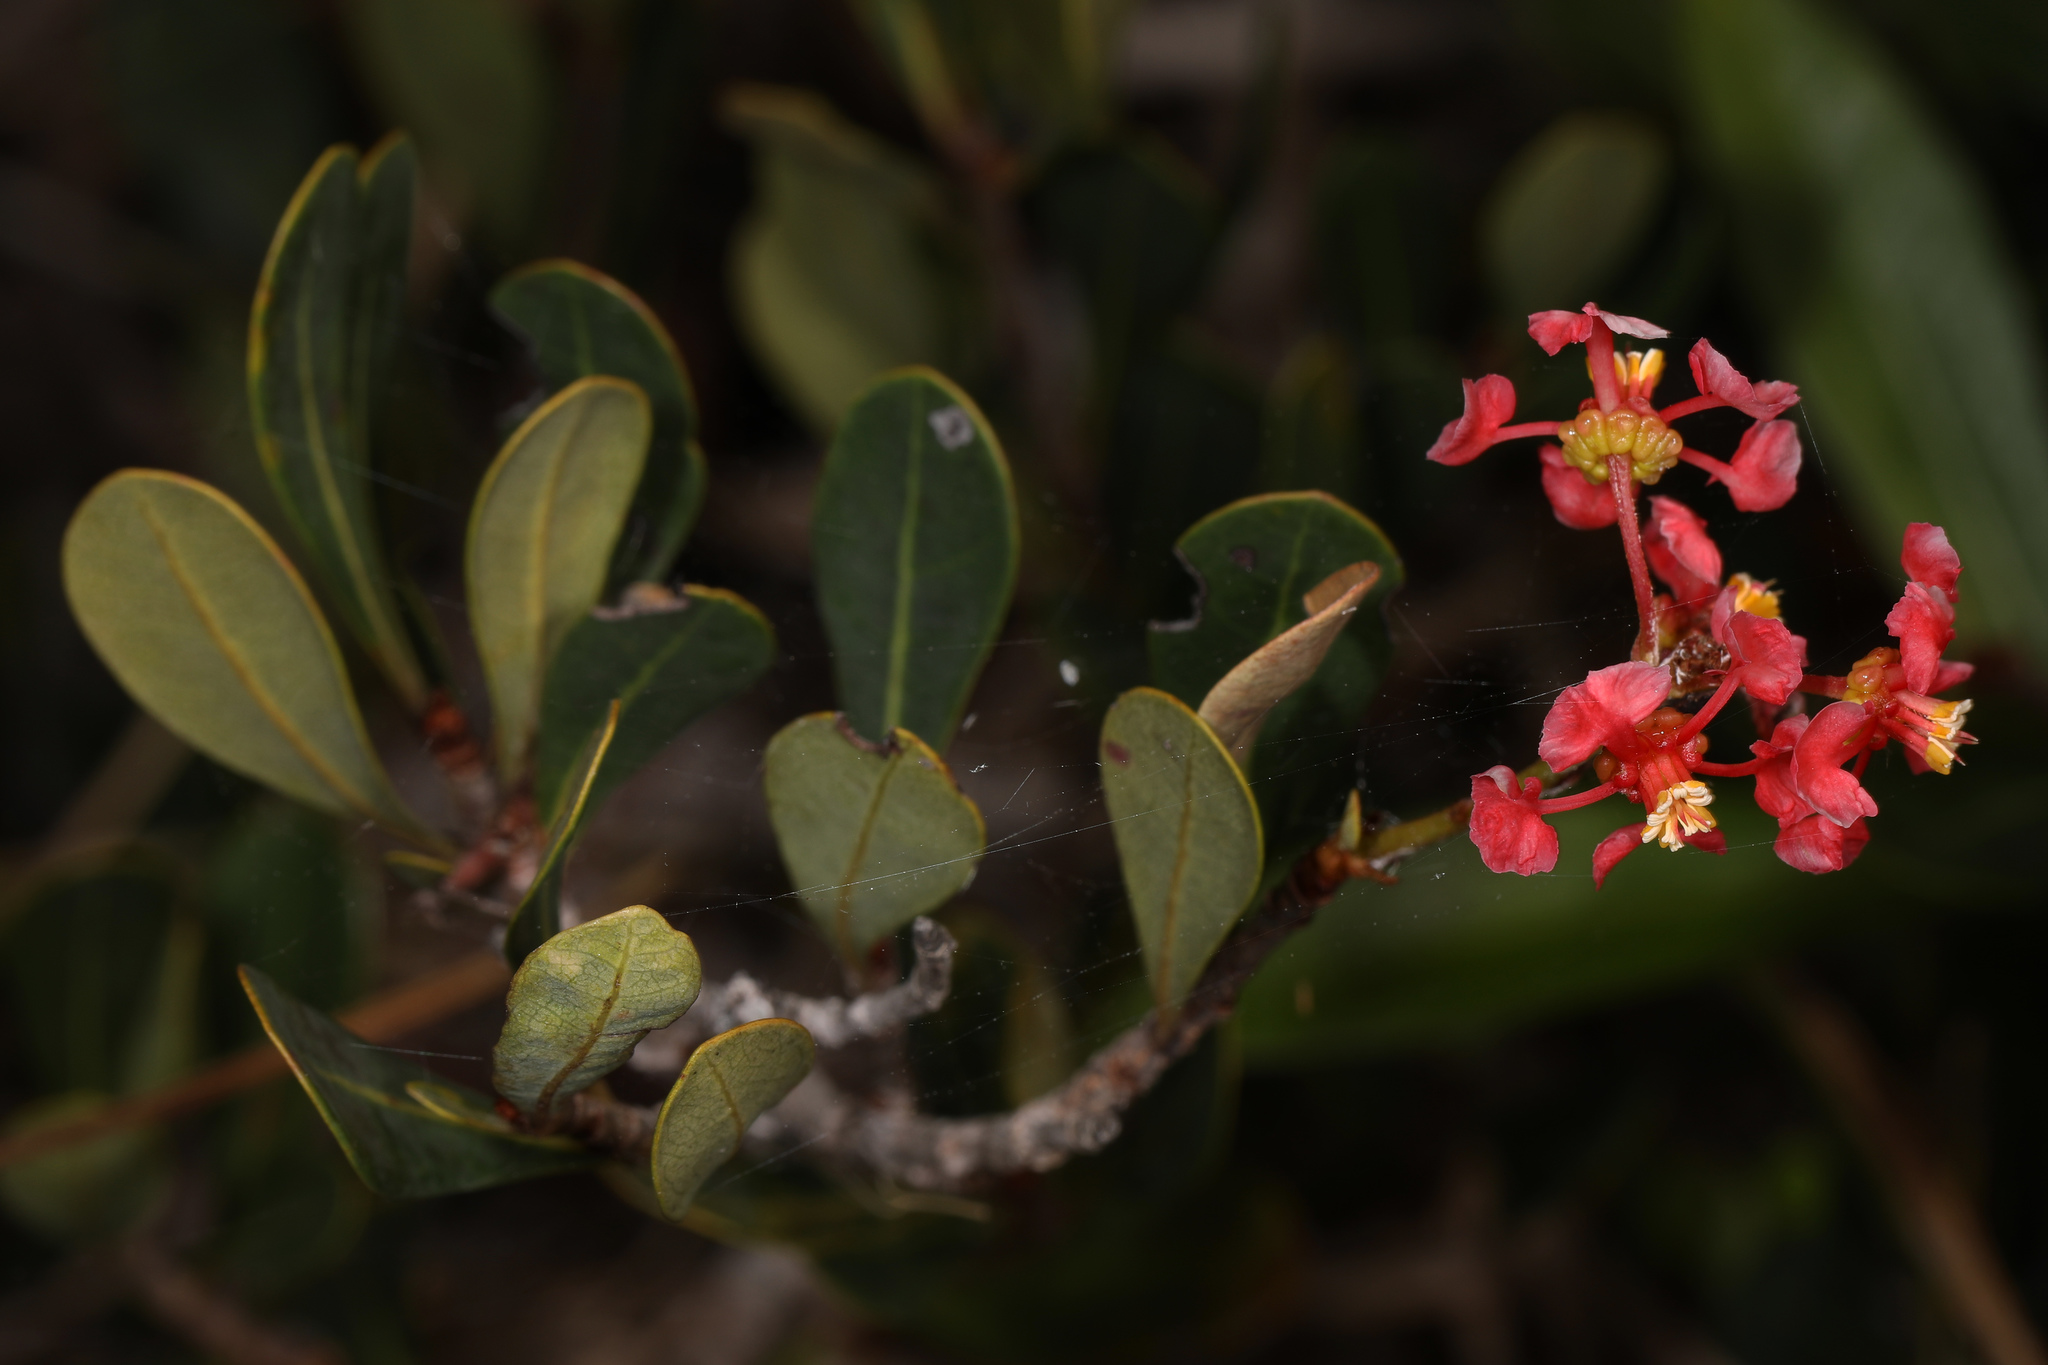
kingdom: Plantae
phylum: Tracheophyta
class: Magnoliopsida
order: Malpighiales
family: Malpighiaceae
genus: Byrsonima
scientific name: Byrsonima lucida
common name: Clam-cherry
